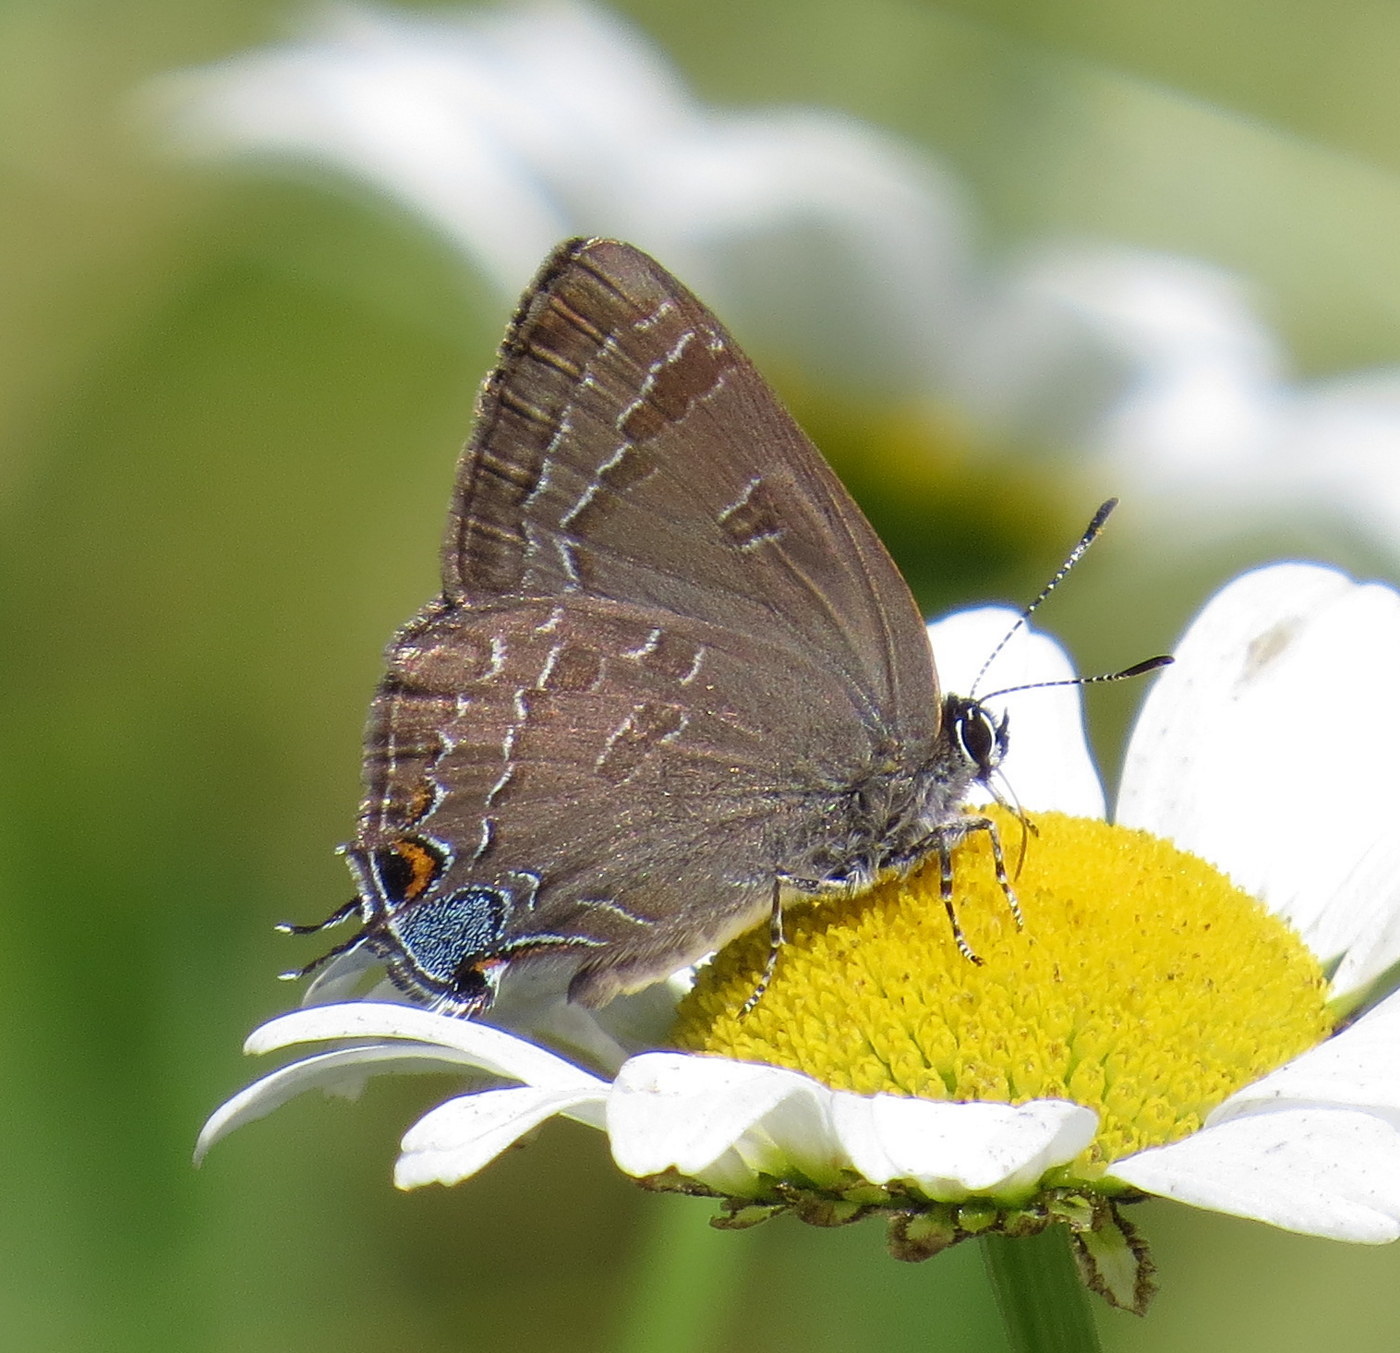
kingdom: Animalia
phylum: Arthropoda
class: Insecta
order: Lepidoptera
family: Lycaenidae
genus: Strymon
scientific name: Strymon caryaevorus
